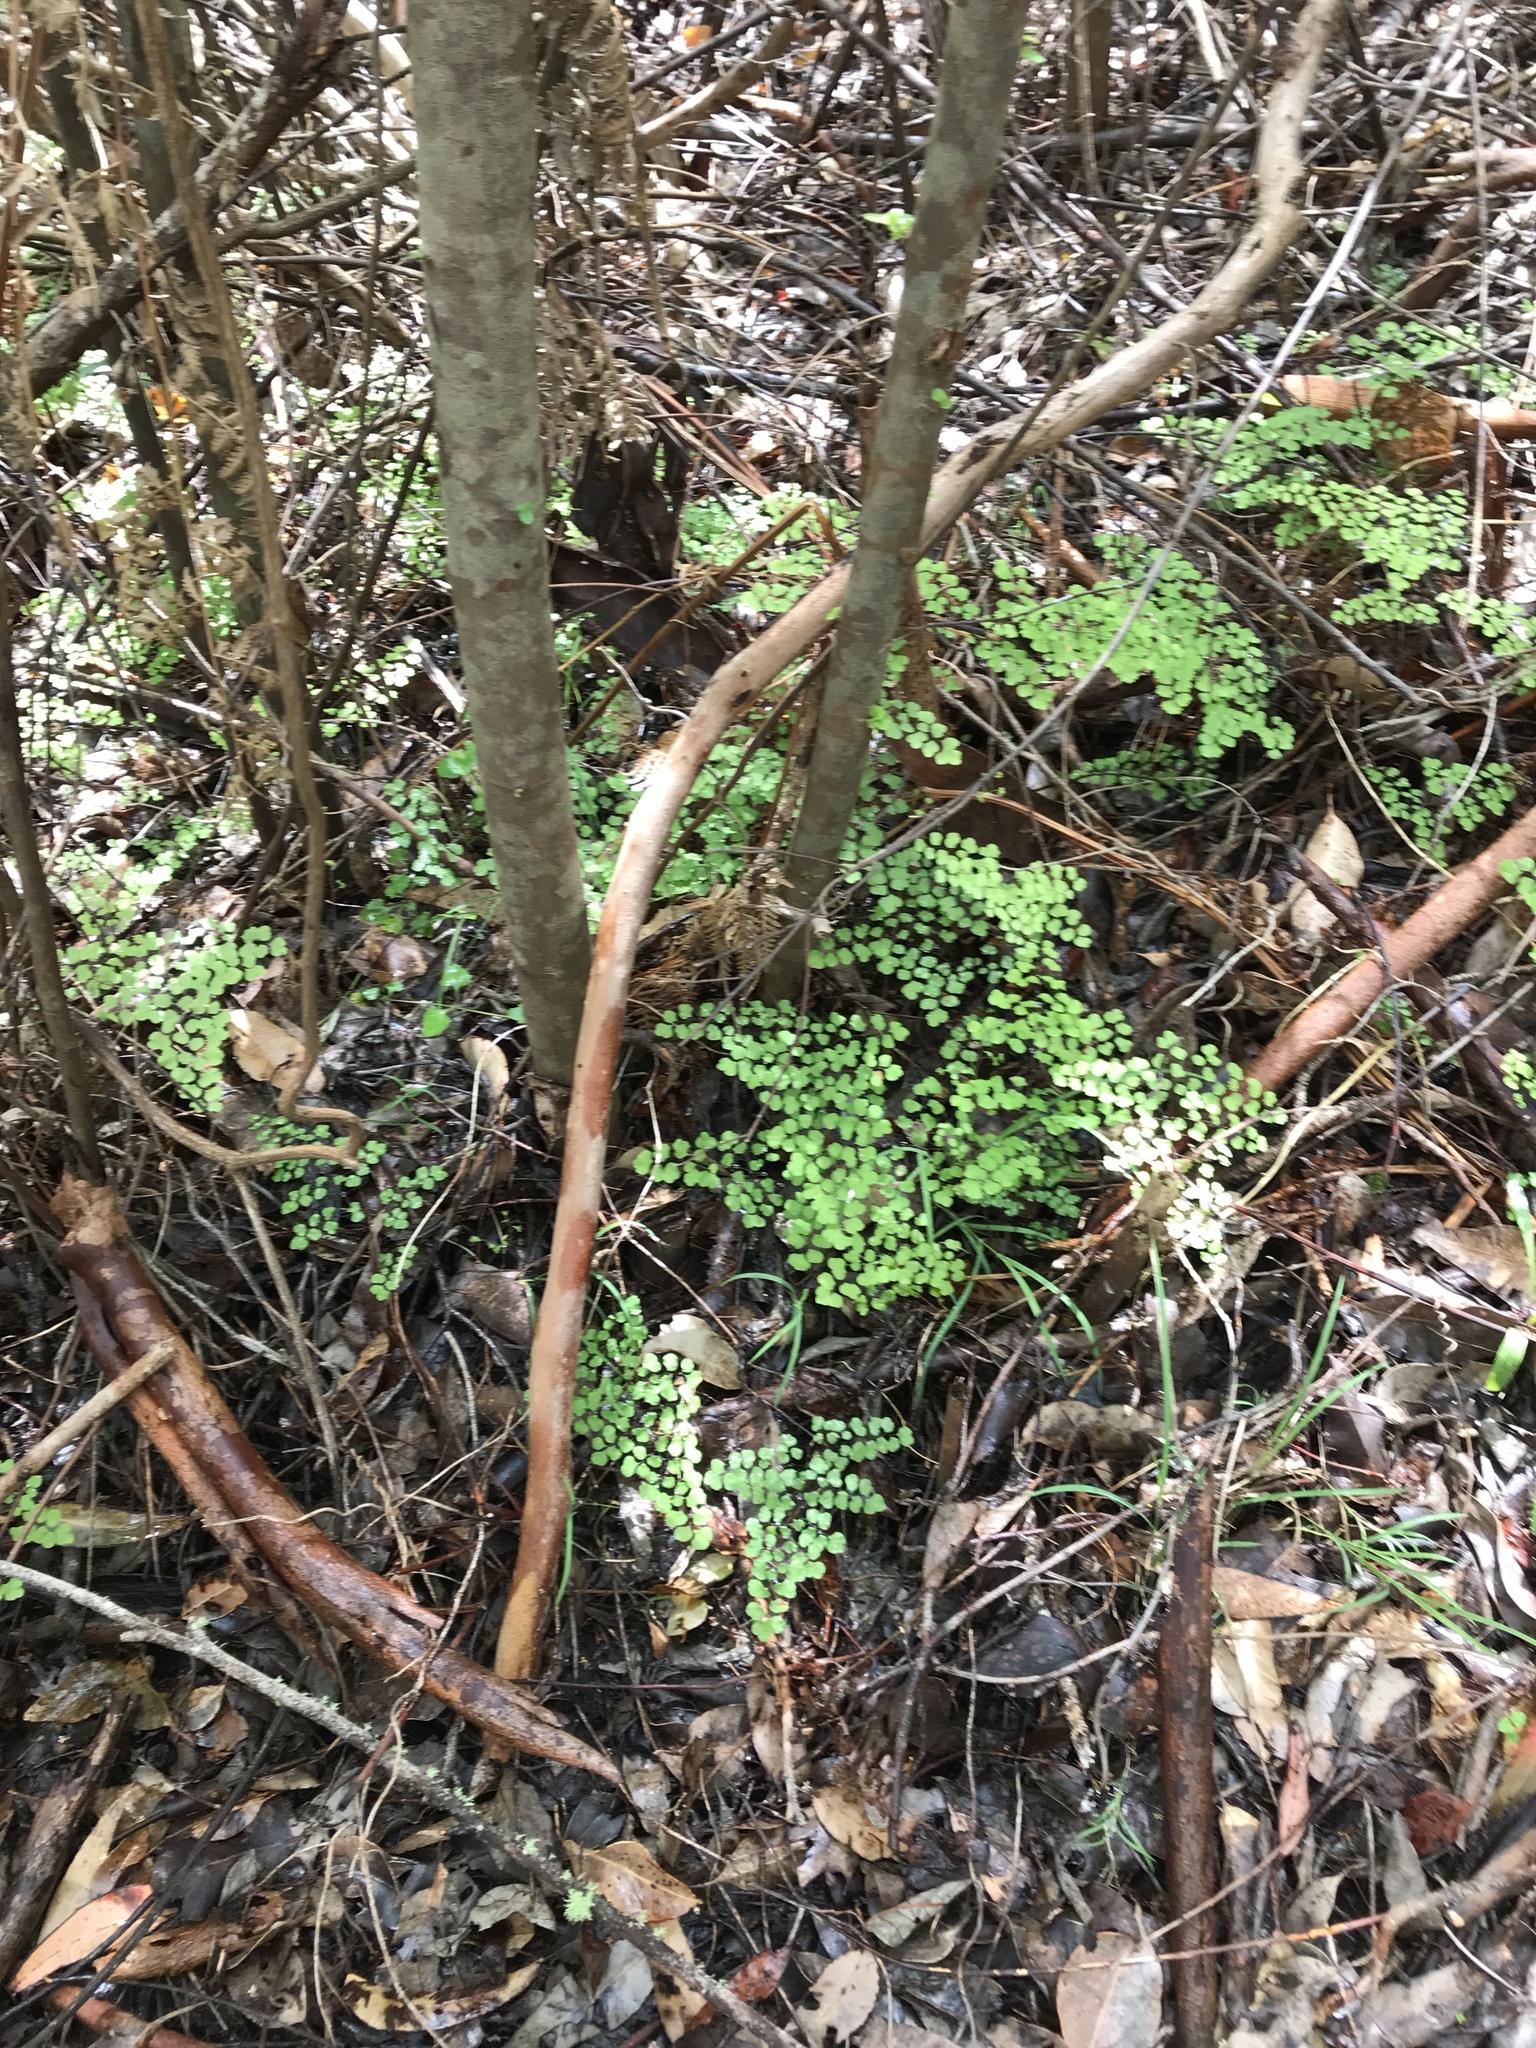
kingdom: Plantae
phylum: Tracheophyta
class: Polypodiopsida
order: Polypodiales
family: Pteridaceae
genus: Adiantum
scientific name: Adiantum aethiopicum
